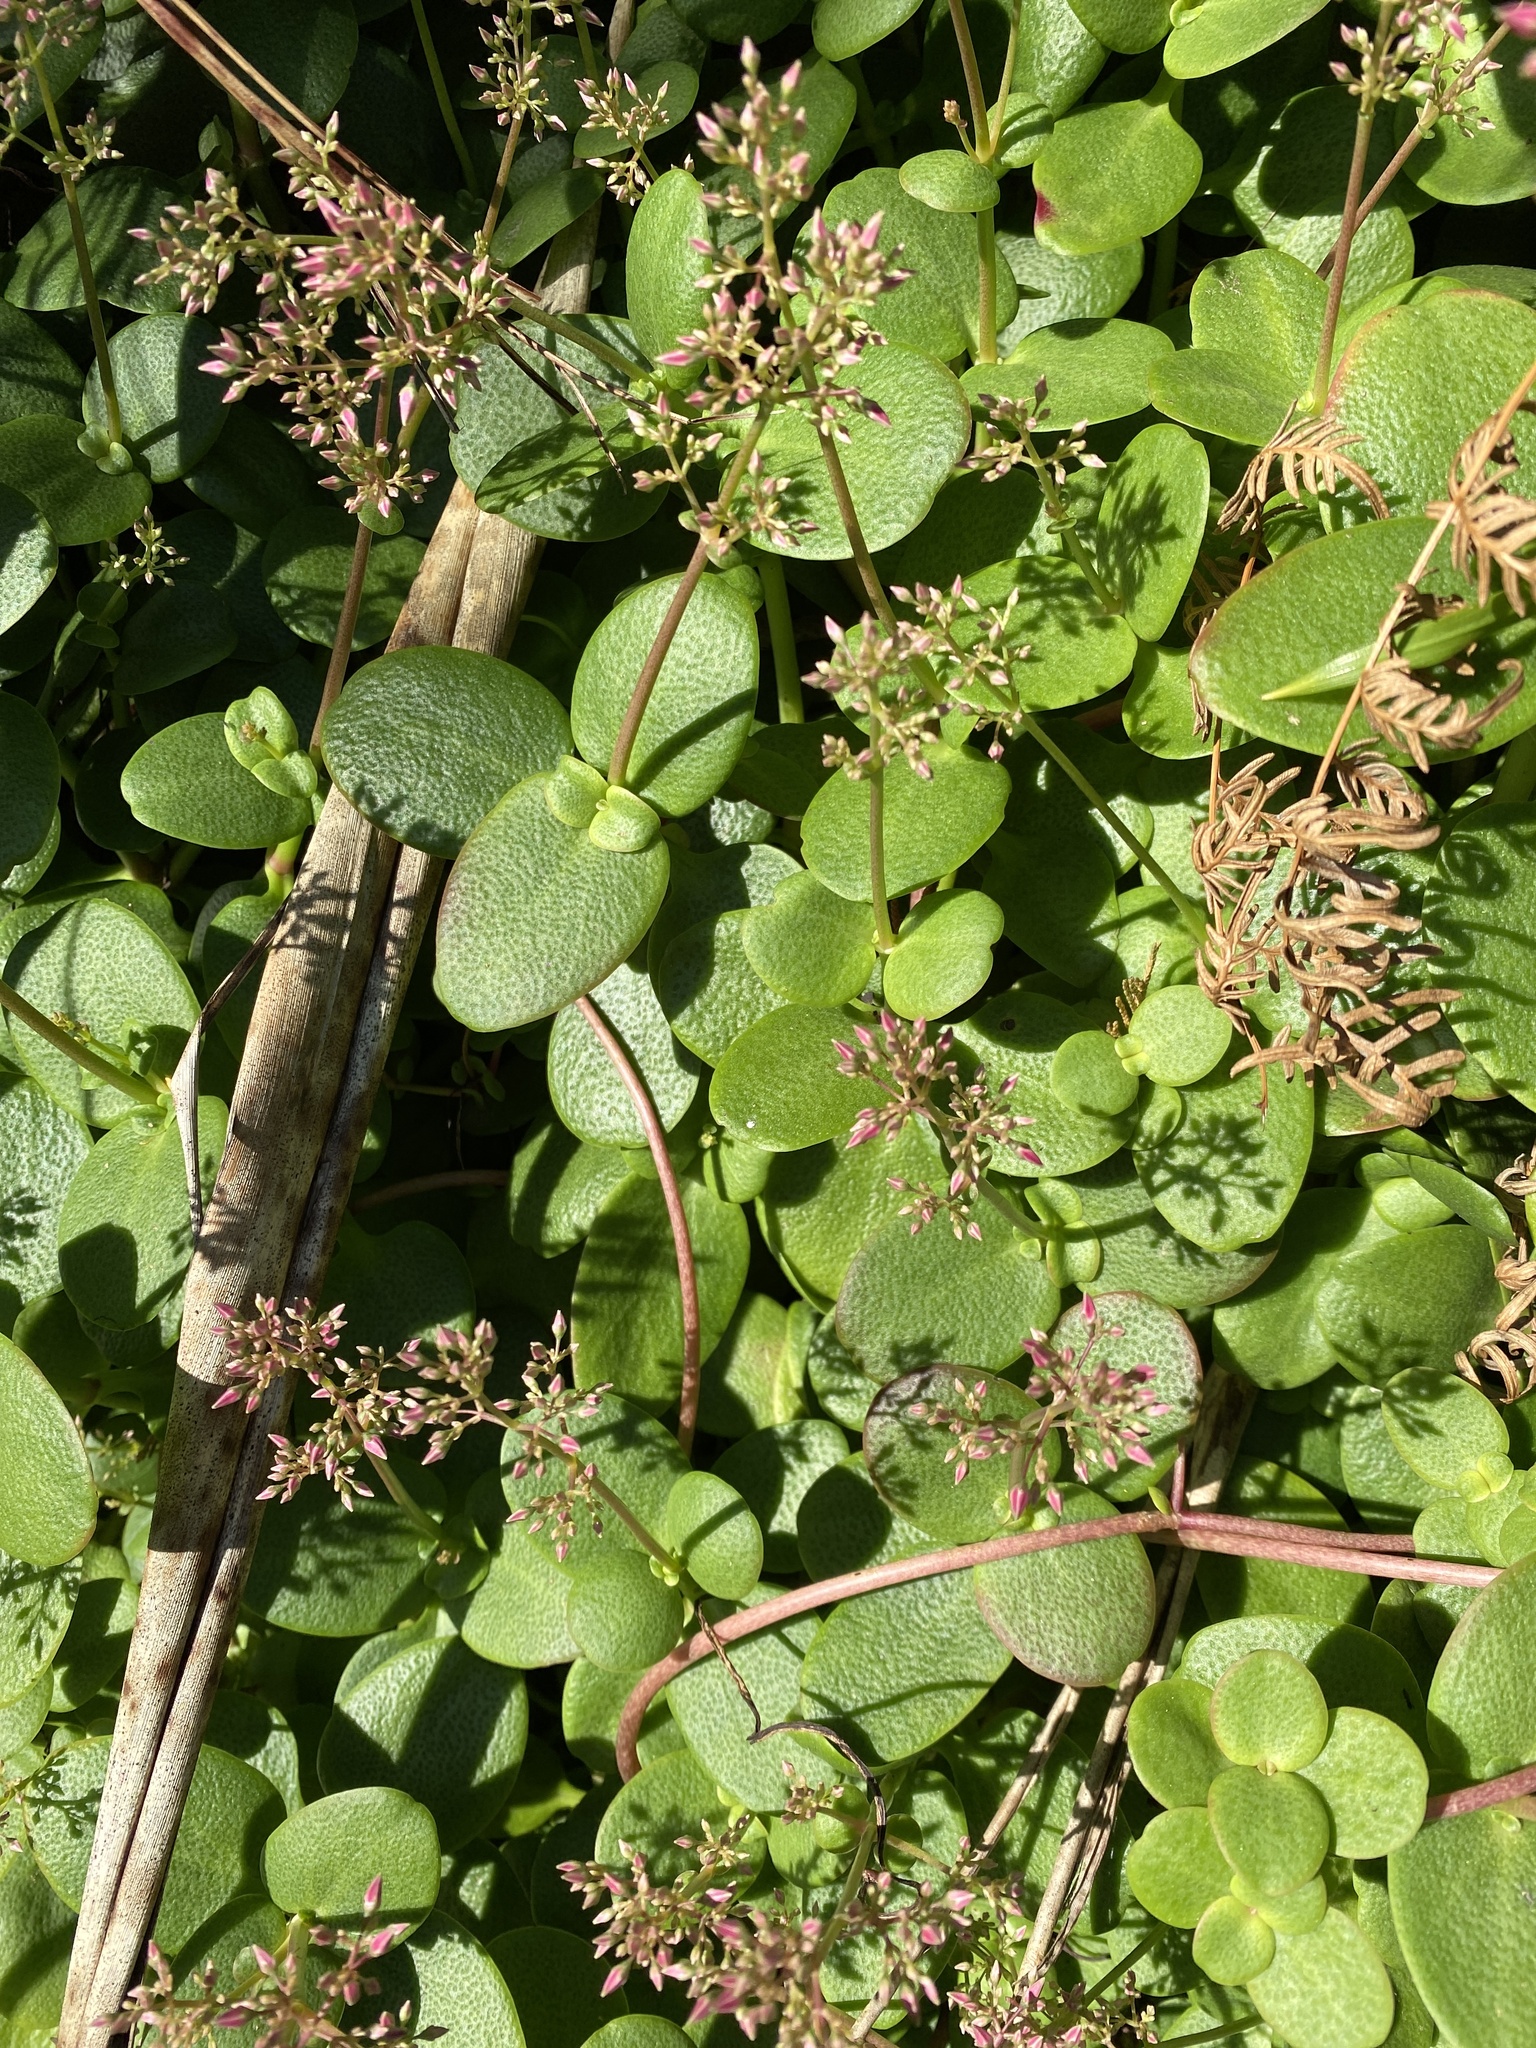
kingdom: Plantae
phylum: Tracheophyta
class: Magnoliopsida
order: Saxifragales
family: Crassulaceae
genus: Crassula
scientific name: Crassula multicava
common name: Cape province pygmyweed
